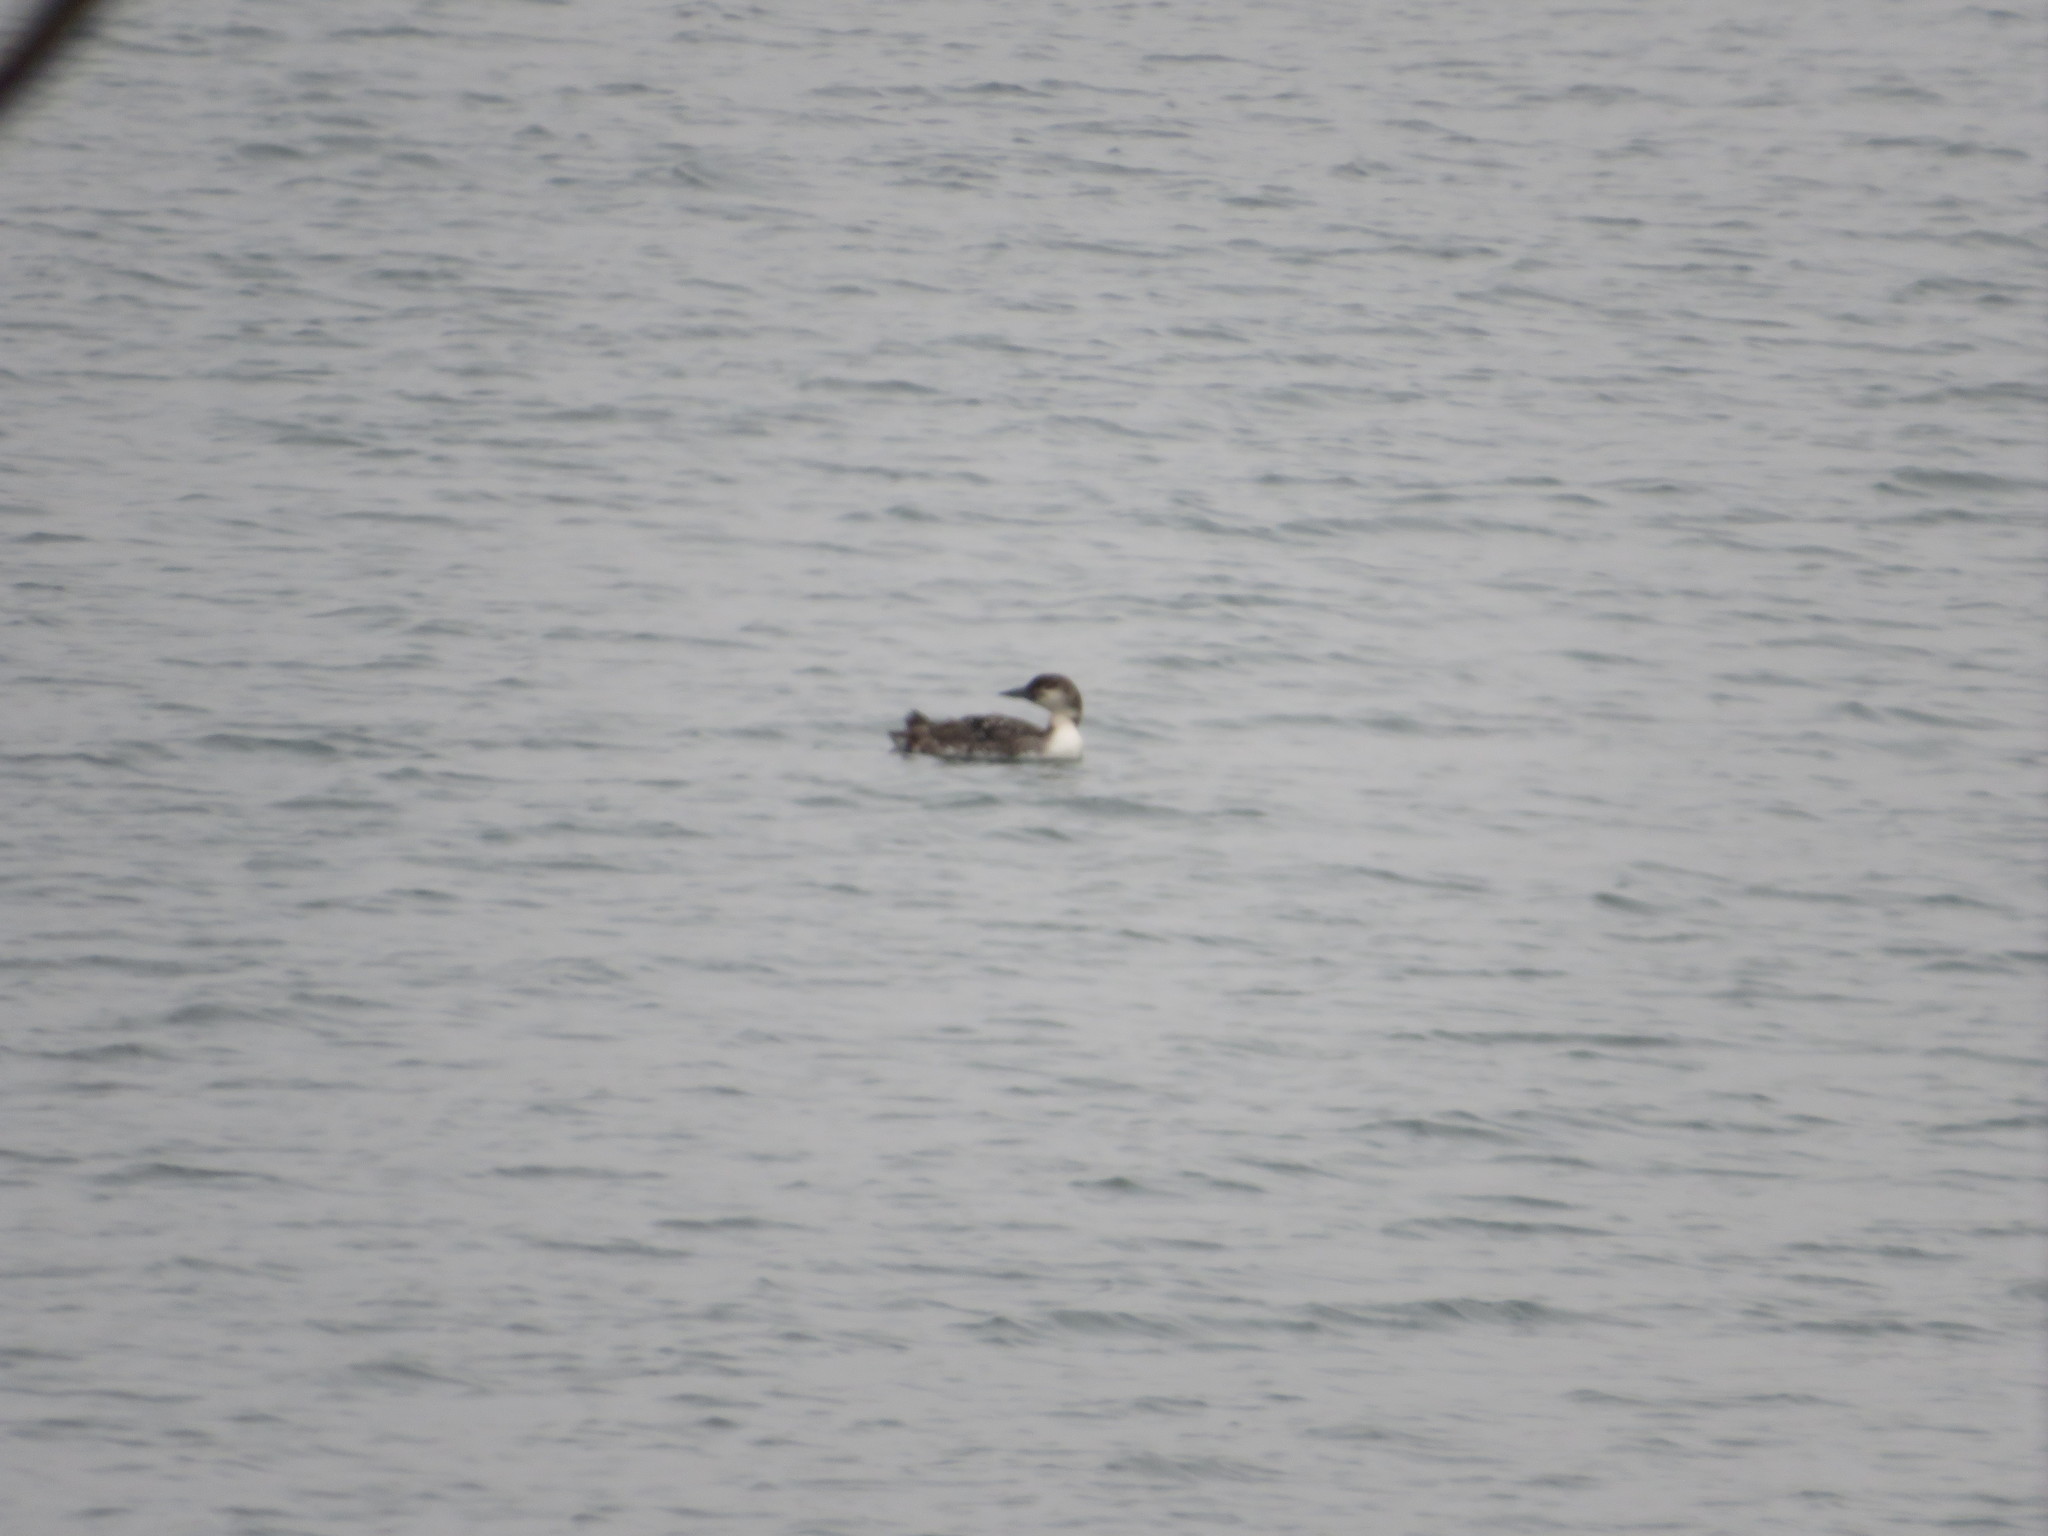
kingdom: Animalia
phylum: Chordata
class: Aves
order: Gaviiformes
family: Gaviidae
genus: Gavia
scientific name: Gavia immer
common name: Common loon
